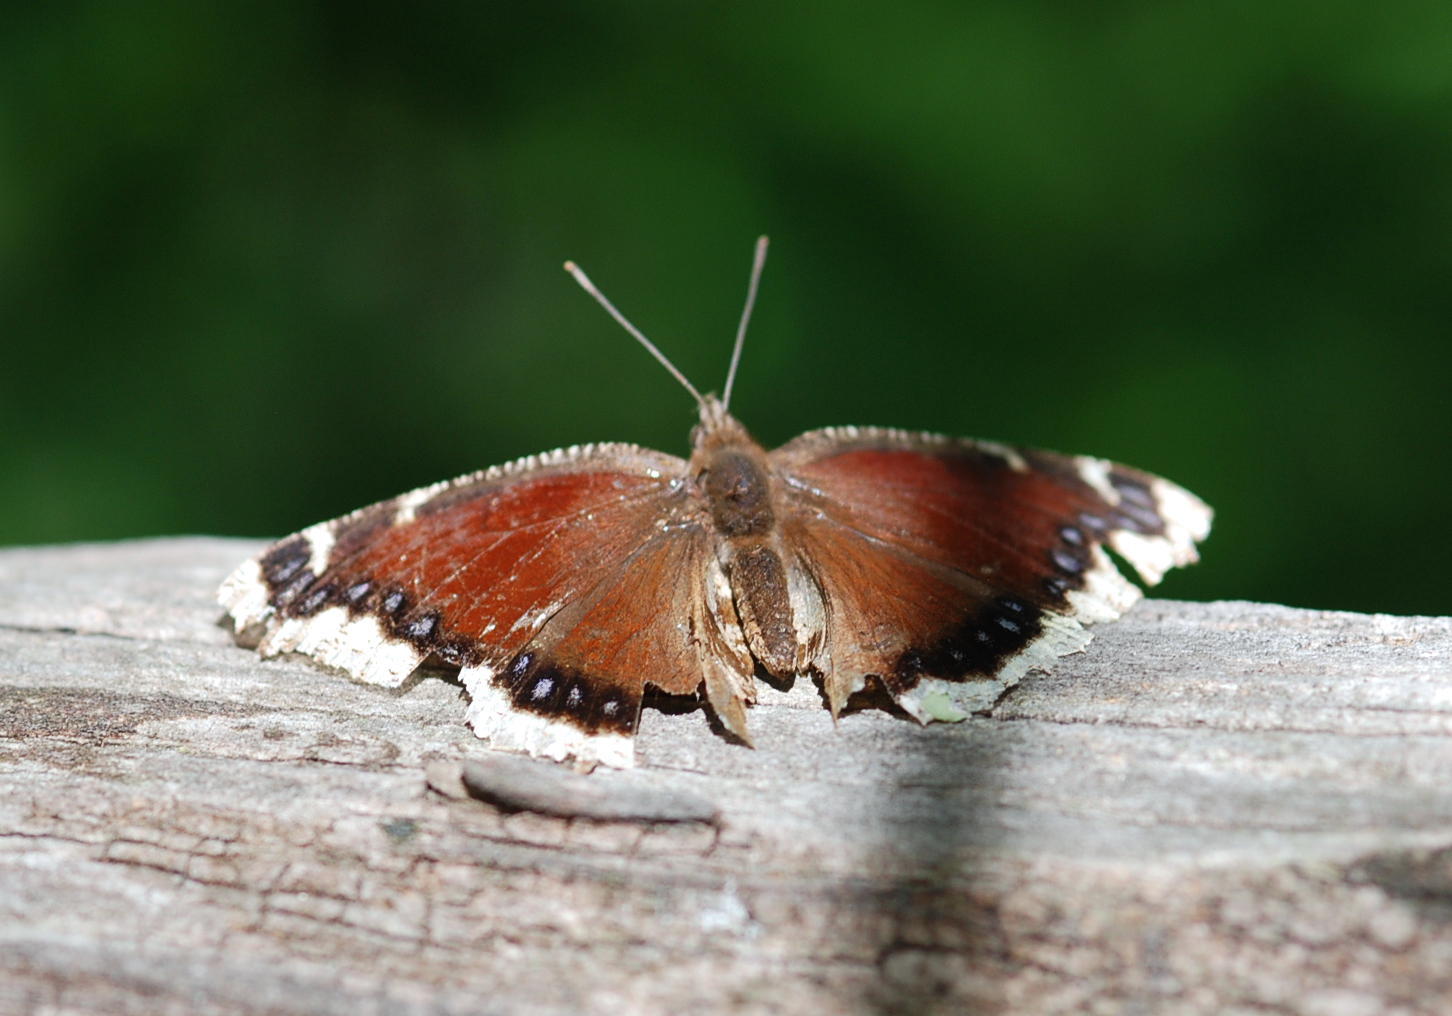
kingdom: Animalia
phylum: Arthropoda
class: Insecta
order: Lepidoptera
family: Nymphalidae
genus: Nymphalis
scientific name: Nymphalis antiopa
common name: Camberwell beauty
